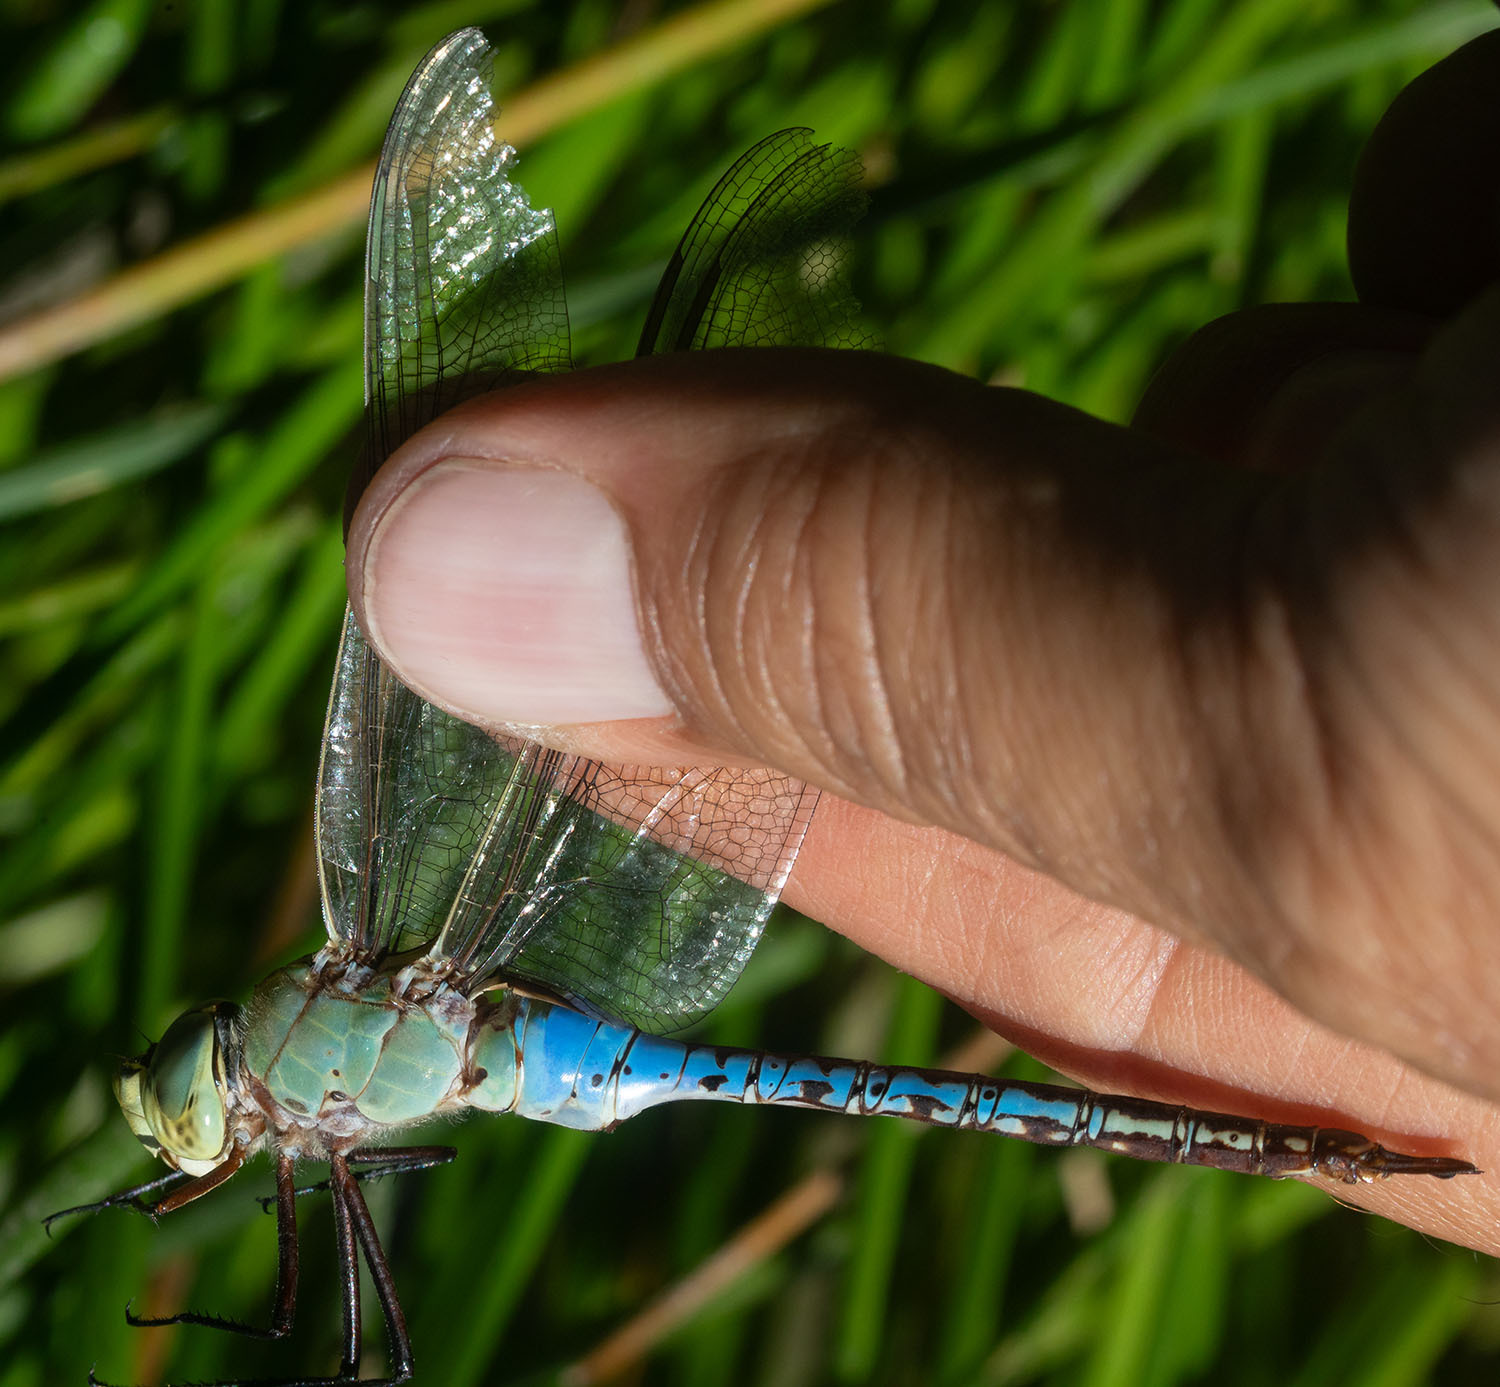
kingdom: Animalia
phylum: Arthropoda
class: Insecta
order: Odonata
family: Aeshnidae
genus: Anax
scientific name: Anax junius
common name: Common green darner
